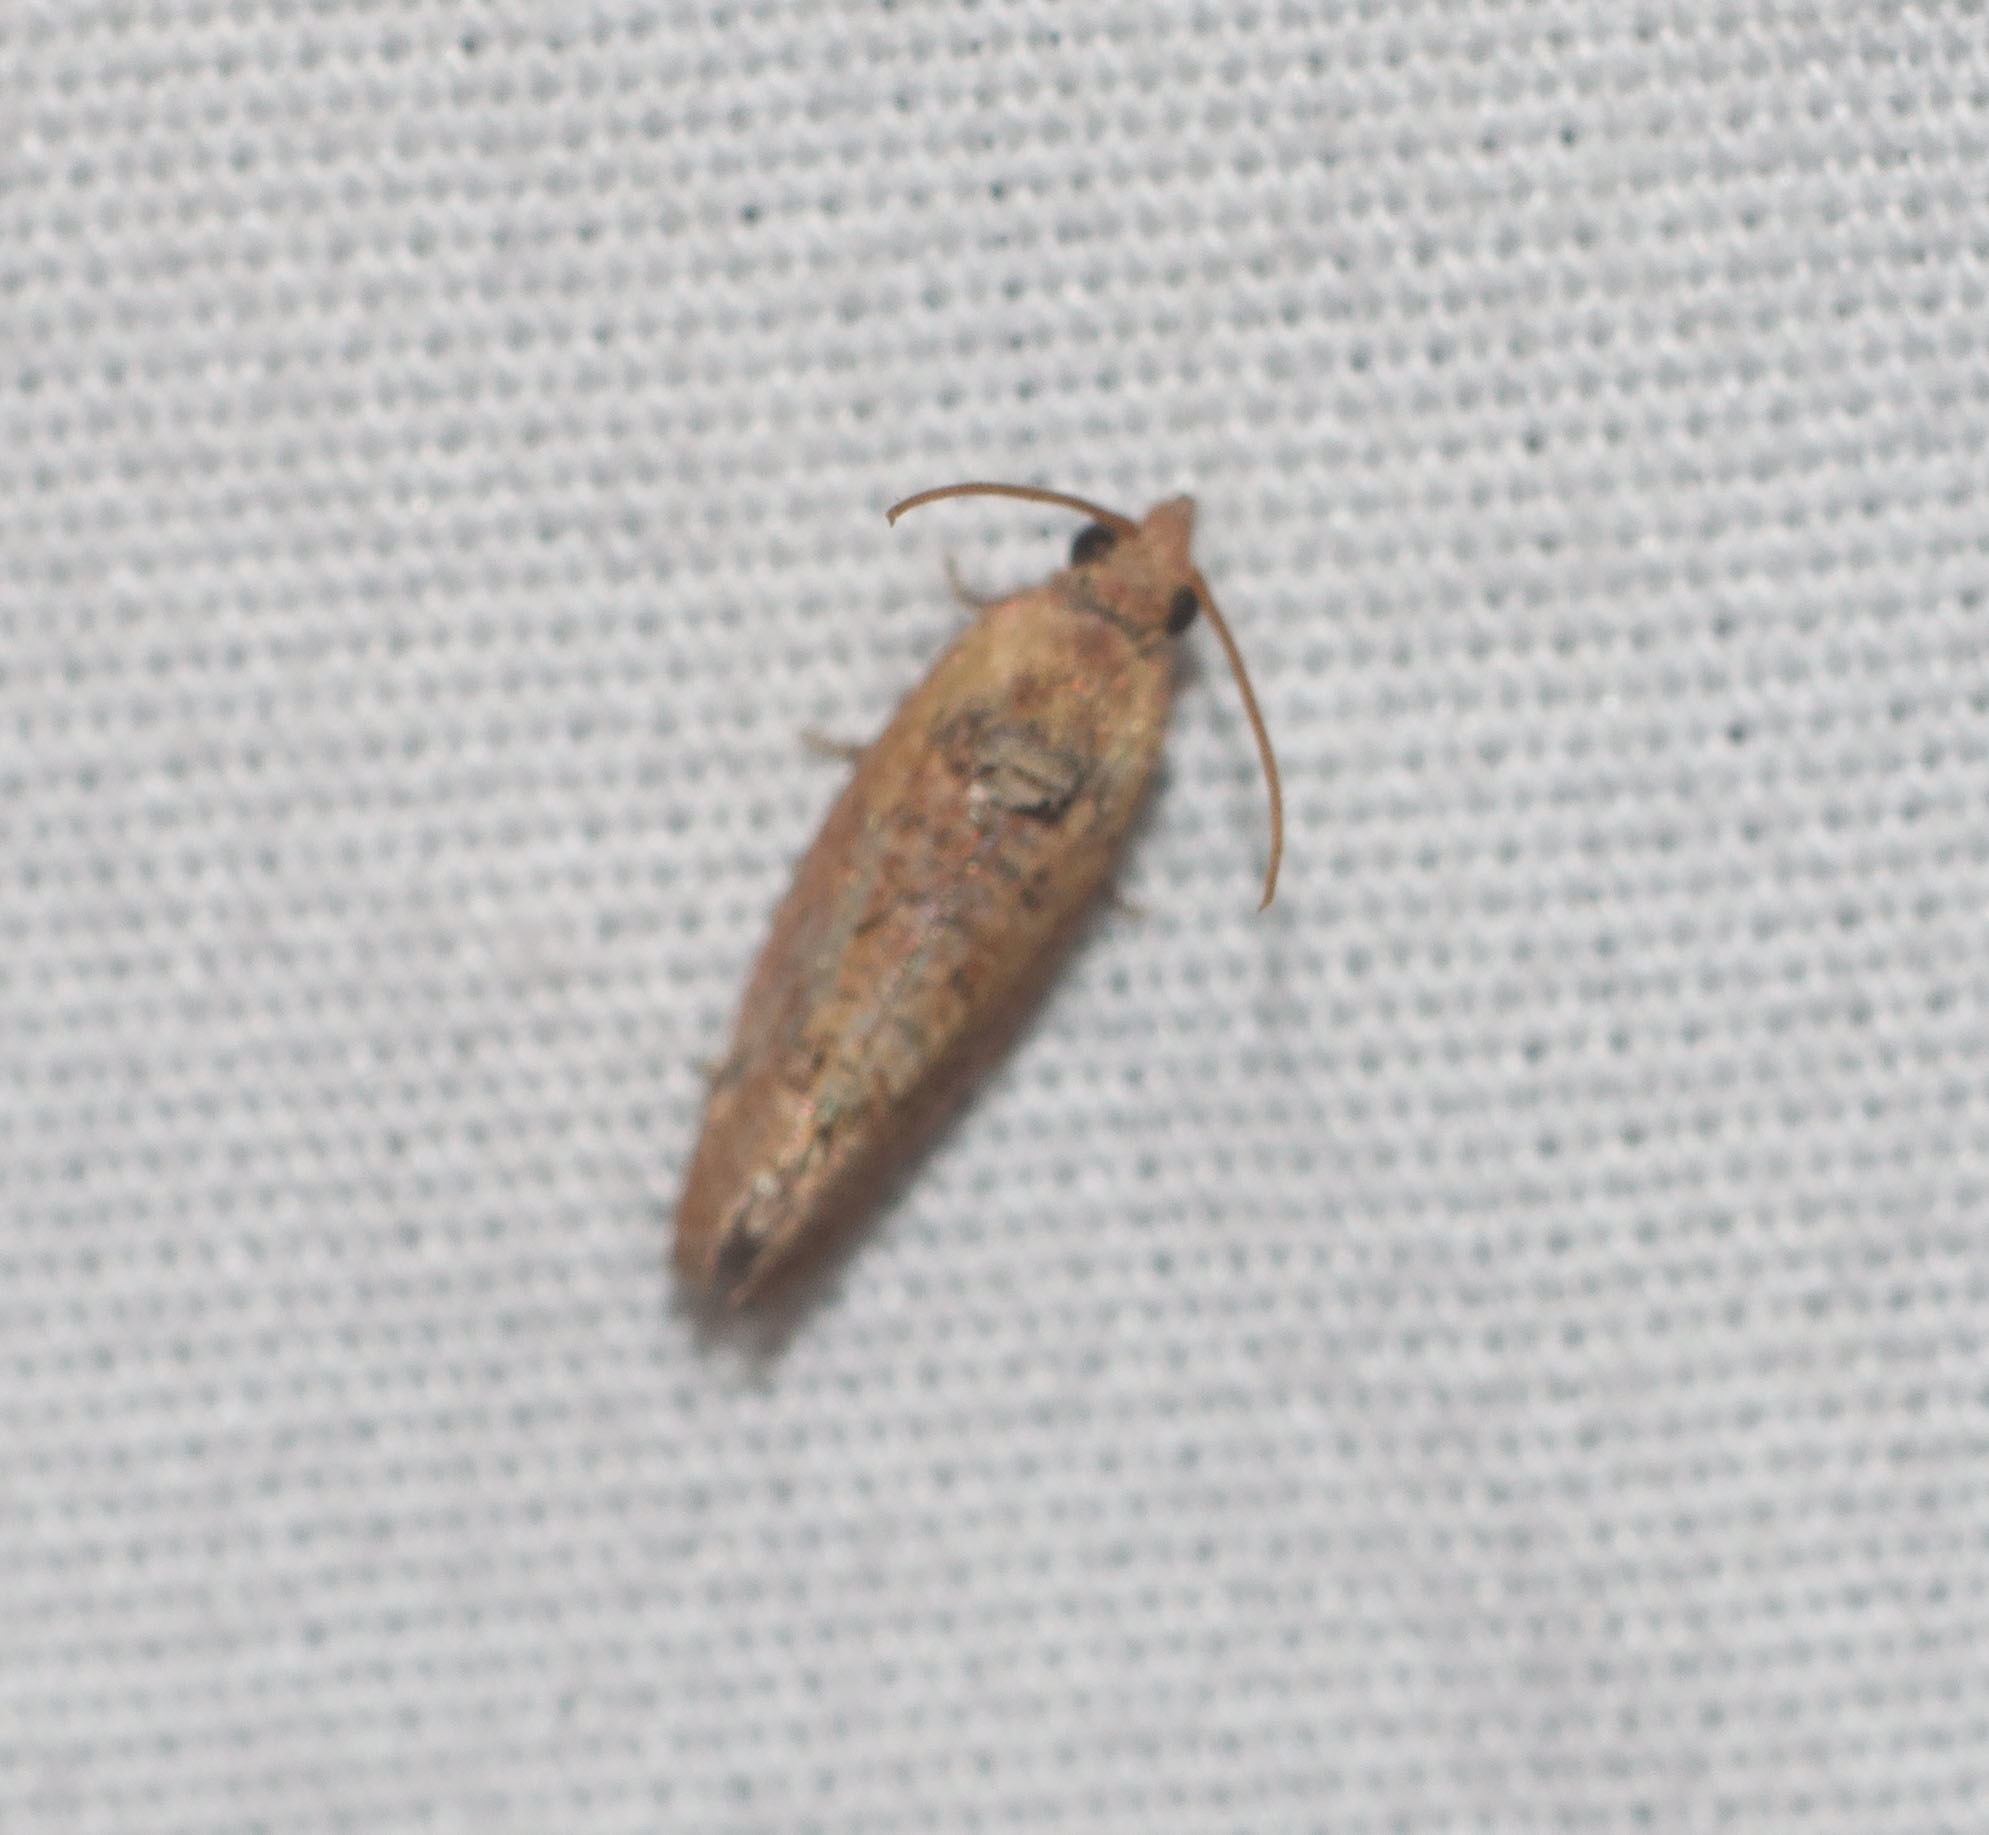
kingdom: Animalia
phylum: Arthropoda
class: Insecta
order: Lepidoptera
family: Tortricidae
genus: Cryptophlebia
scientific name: Cryptophlebia illepida
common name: Moth
